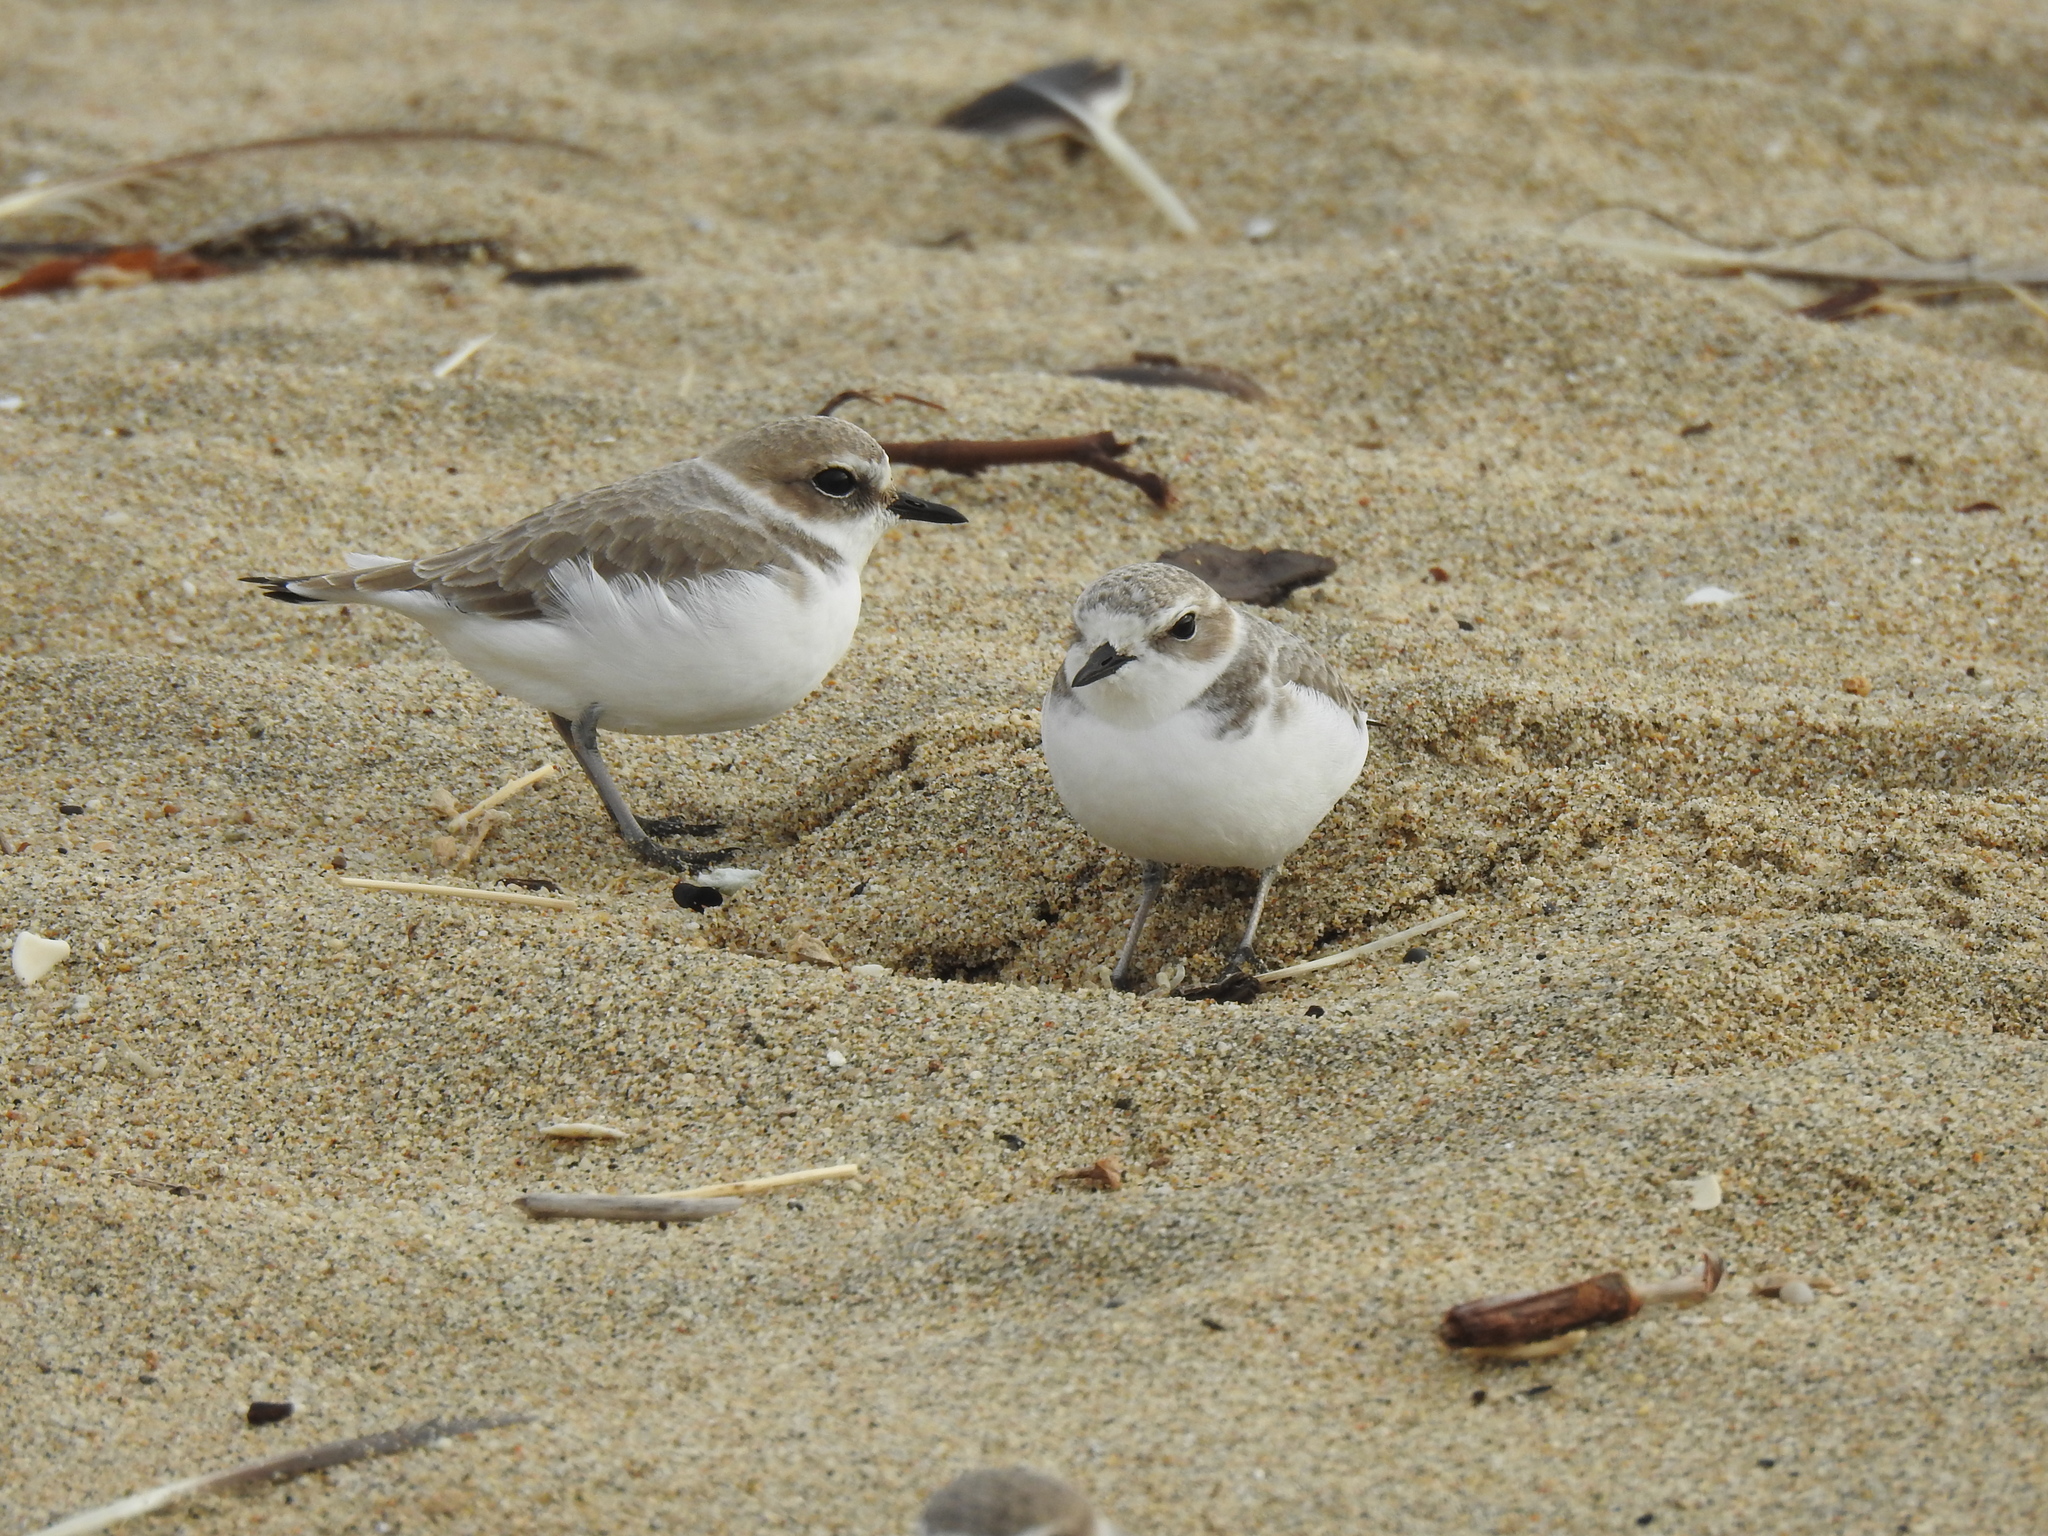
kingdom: Animalia
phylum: Chordata
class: Aves
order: Charadriiformes
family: Charadriidae
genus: Anarhynchus
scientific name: Anarhynchus
